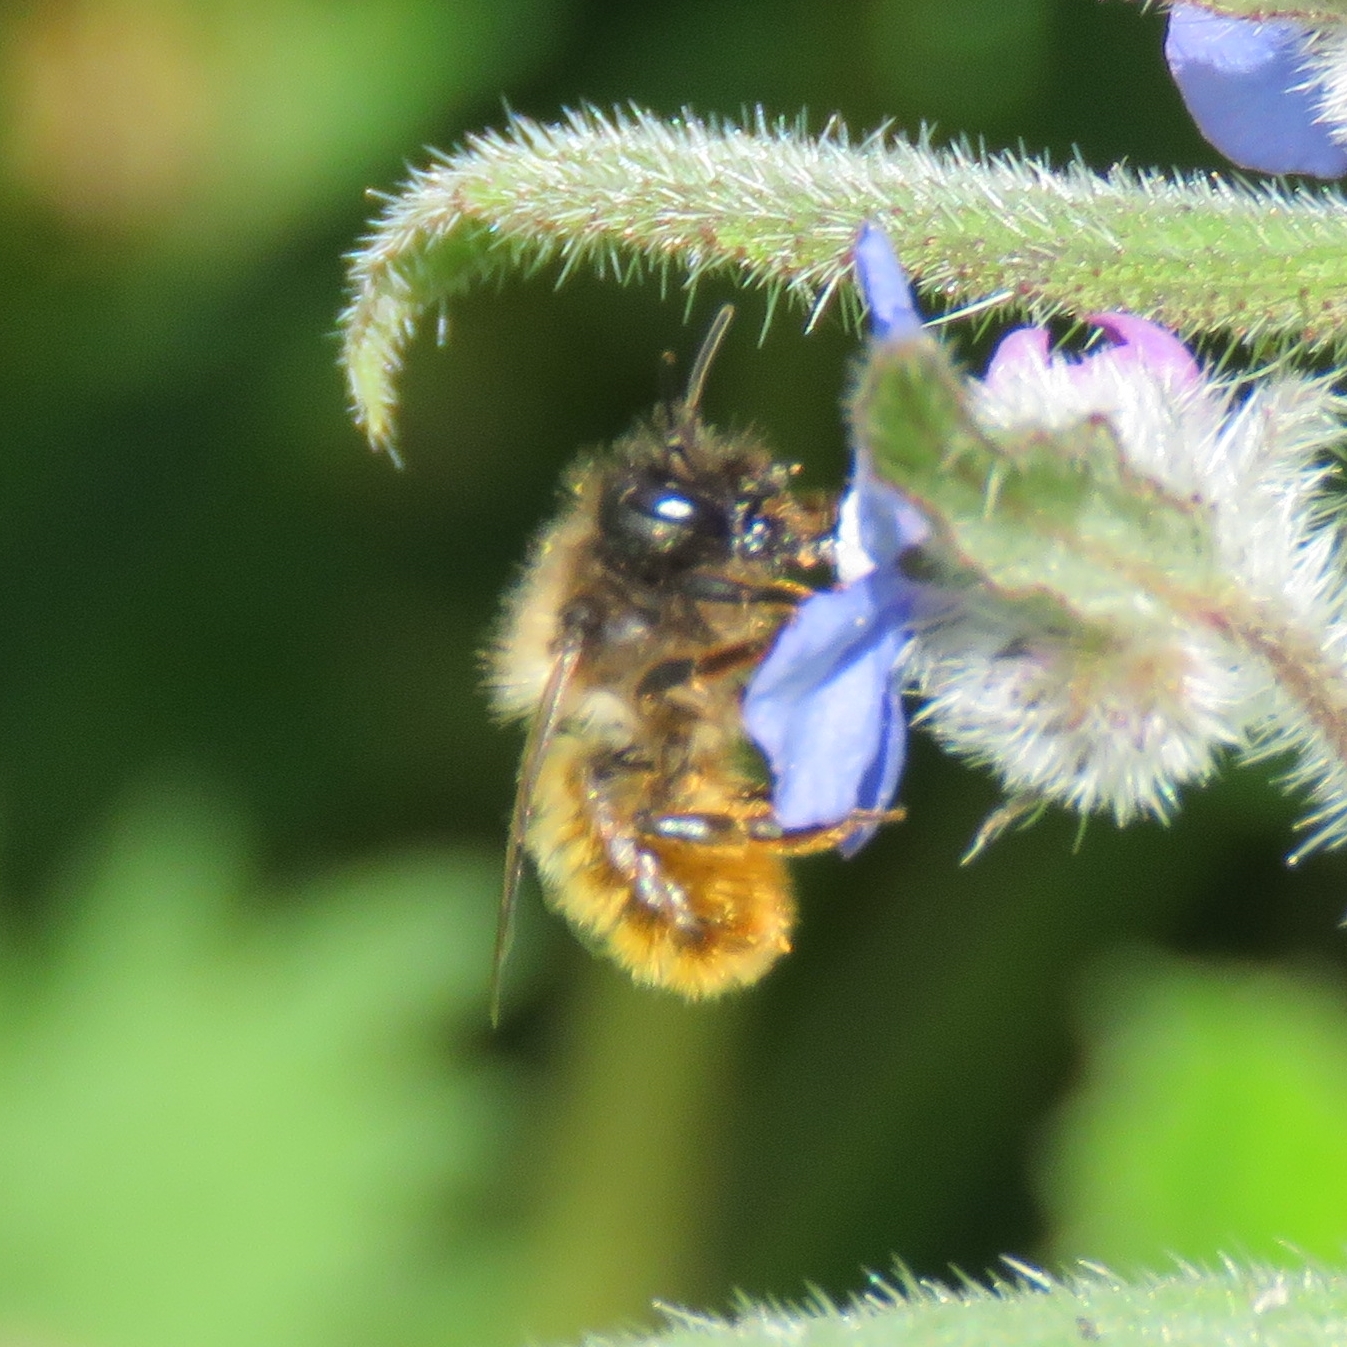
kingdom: Animalia
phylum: Arthropoda
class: Insecta
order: Hymenoptera
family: Megachilidae
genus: Osmia
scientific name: Osmia bicornis
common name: Red mason bee
